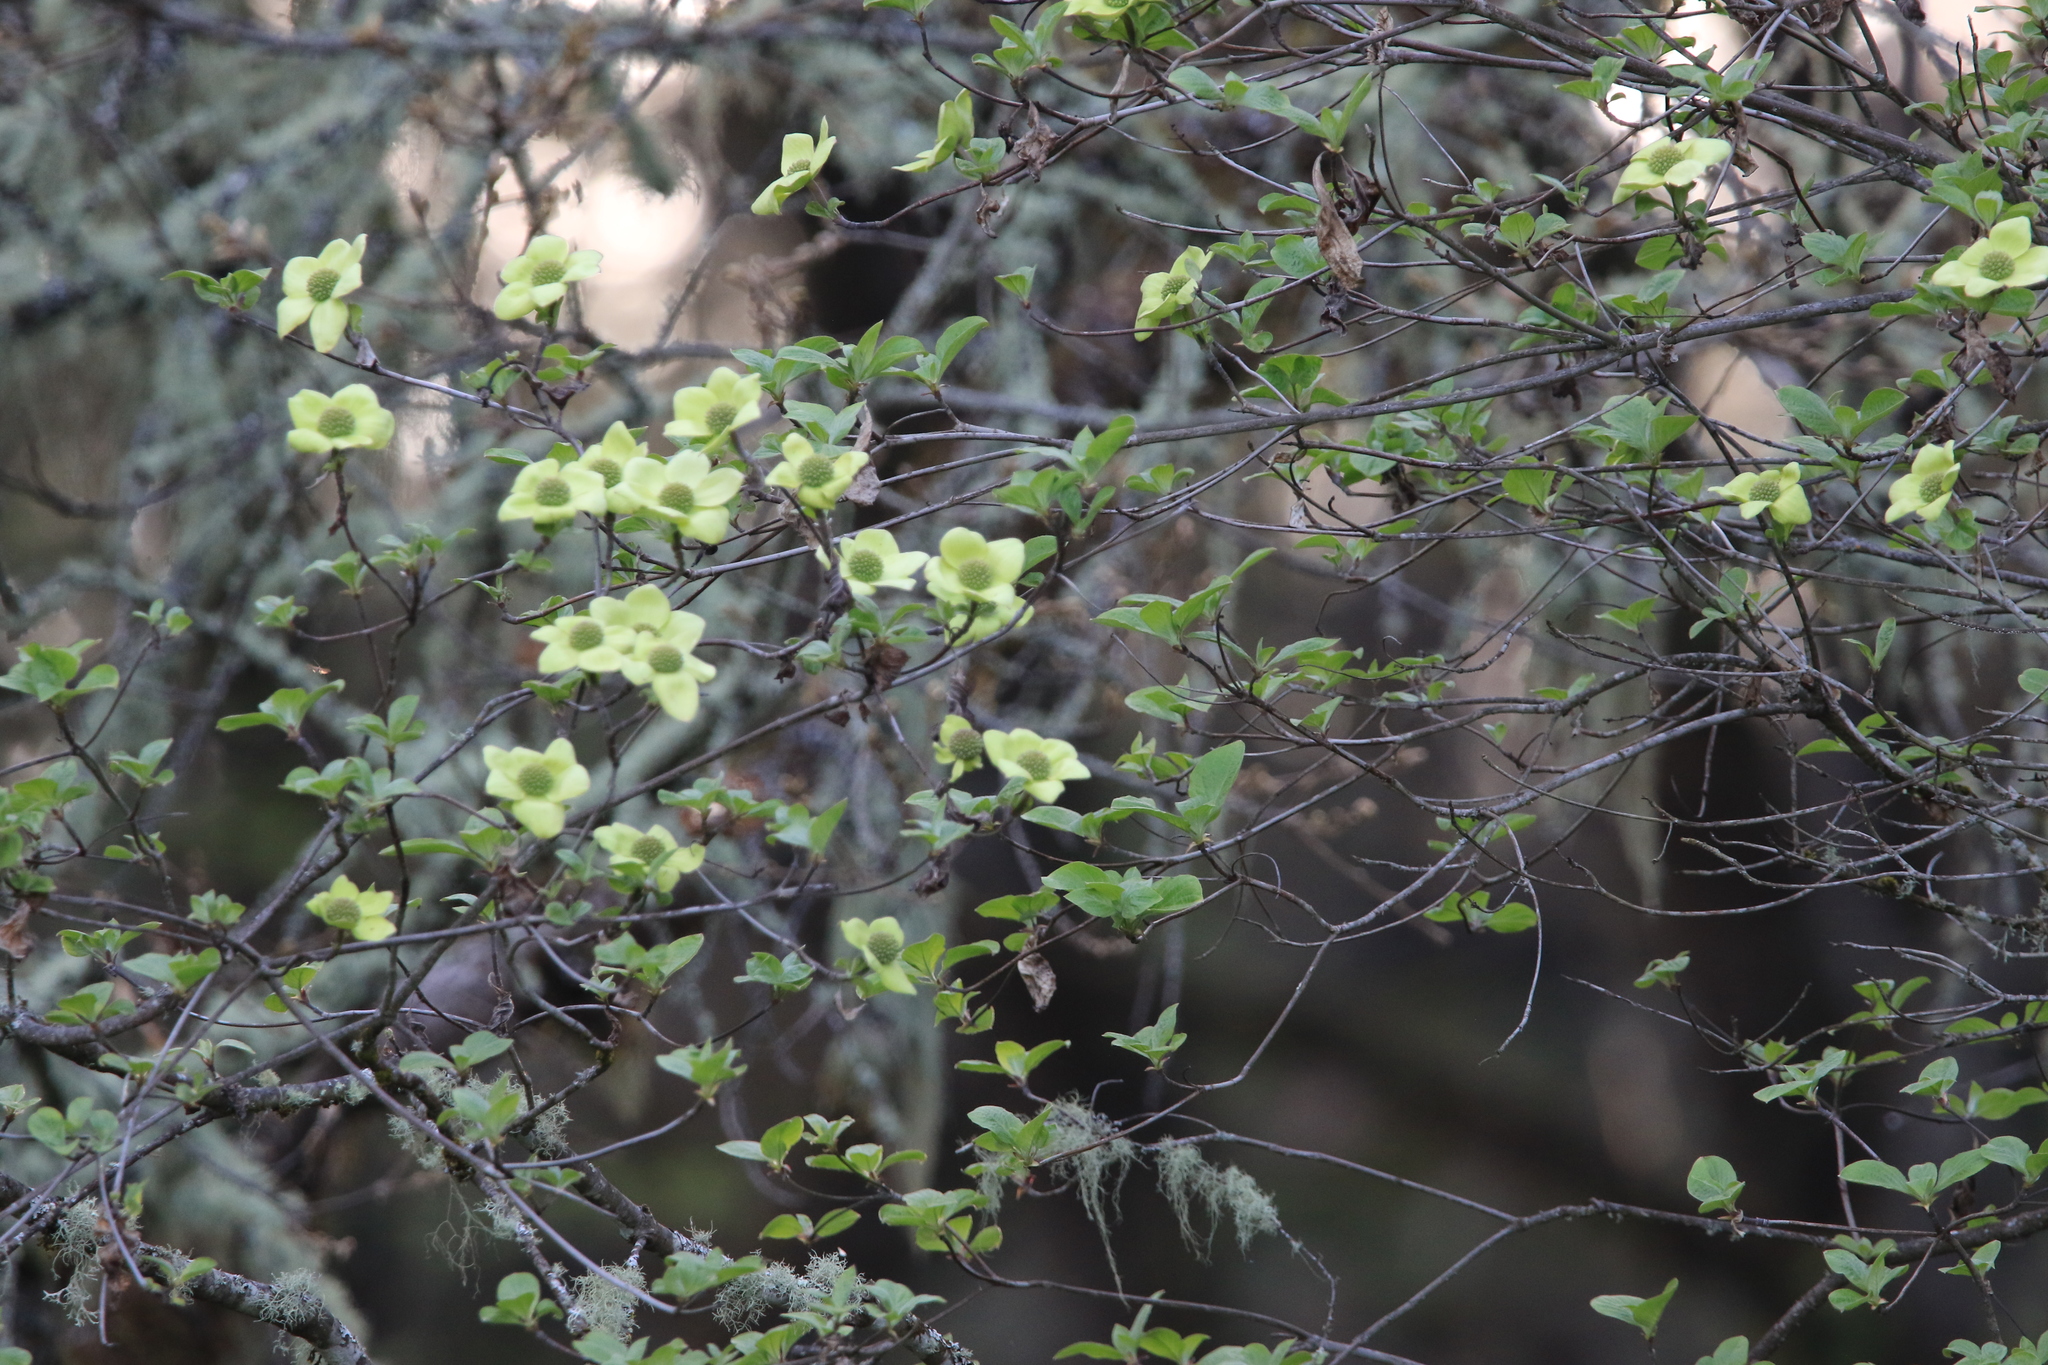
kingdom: Plantae
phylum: Tracheophyta
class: Magnoliopsida
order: Cornales
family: Cornaceae
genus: Cornus
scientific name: Cornus nuttallii
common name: Pacific dogwood
